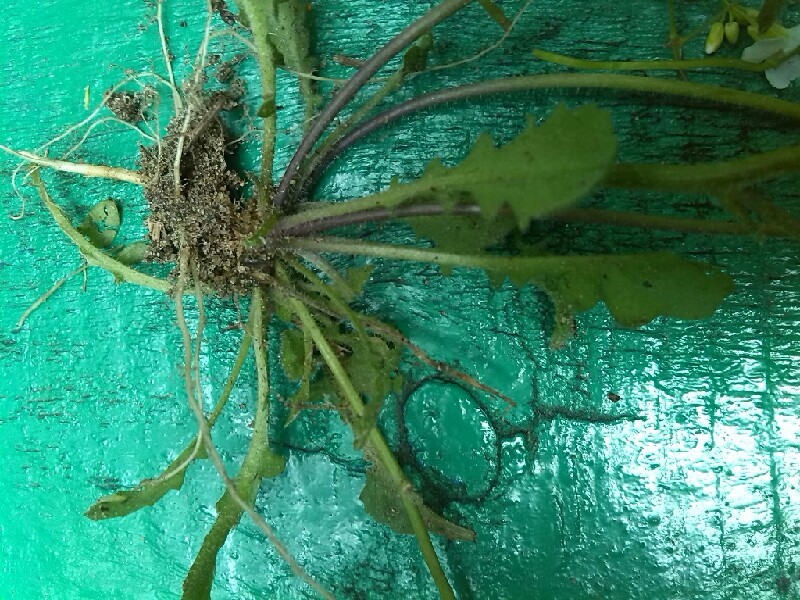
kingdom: Plantae
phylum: Tracheophyta
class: Magnoliopsida
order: Brassicales
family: Brassicaceae
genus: Arabidopsis
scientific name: Arabidopsis arenosa
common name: Sand rock-cress
